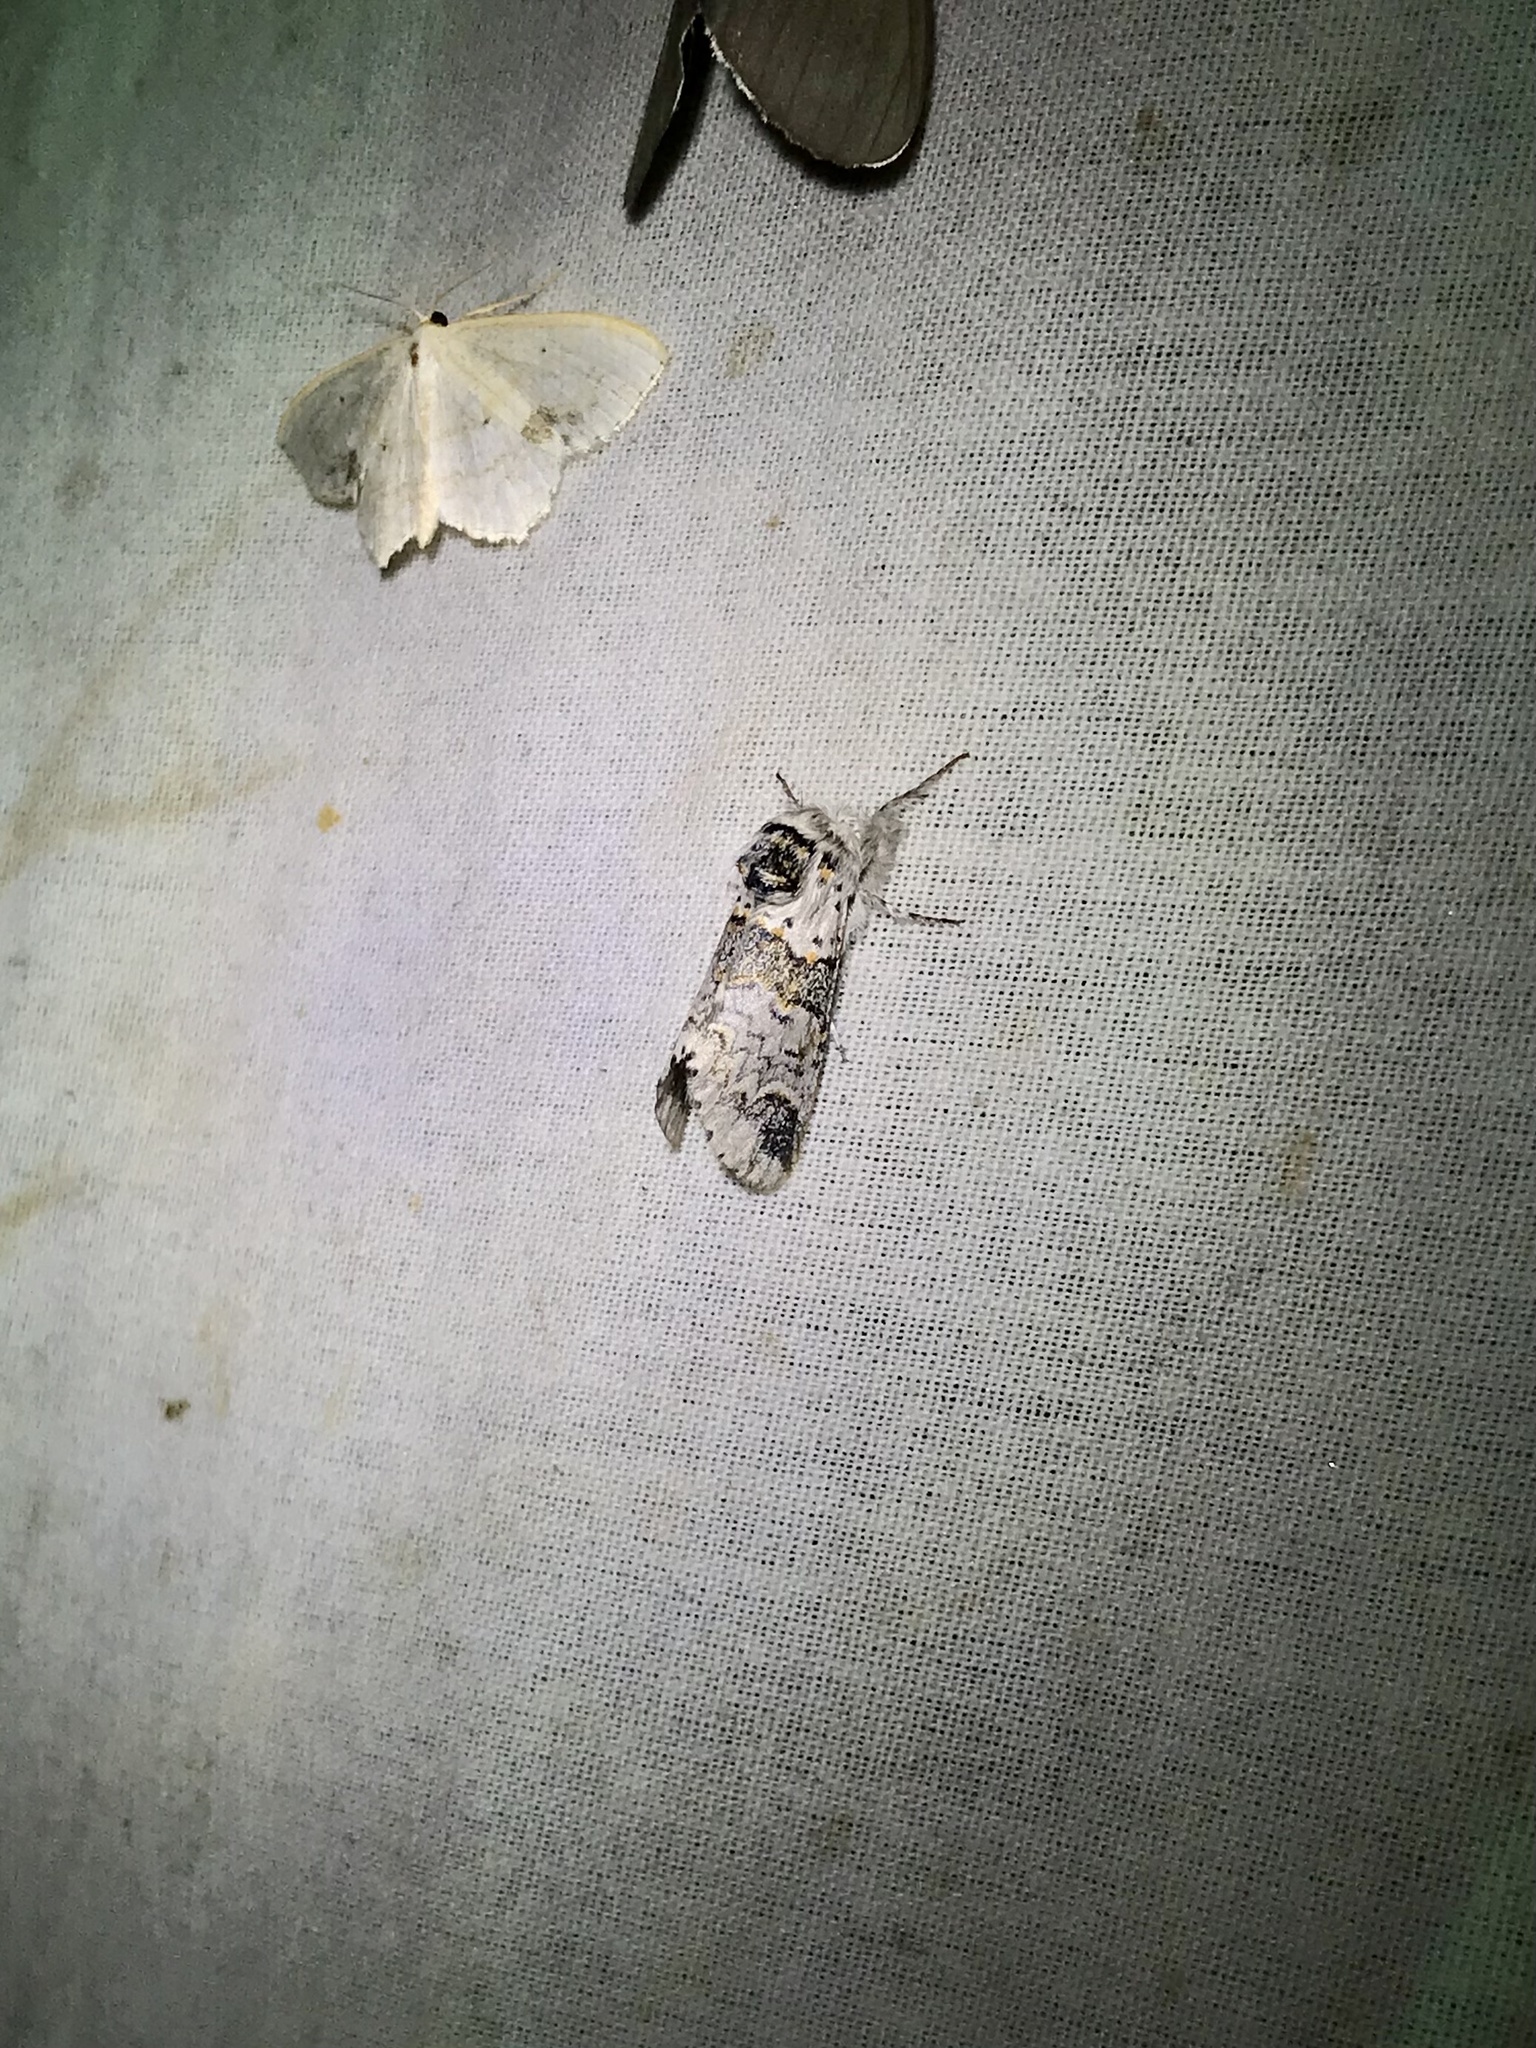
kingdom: Animalia
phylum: Arthropoda
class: Insecta
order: Lepidoptera
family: Notodontidae
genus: Furcula
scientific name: Furcula occidentalis
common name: Western furcula moth
